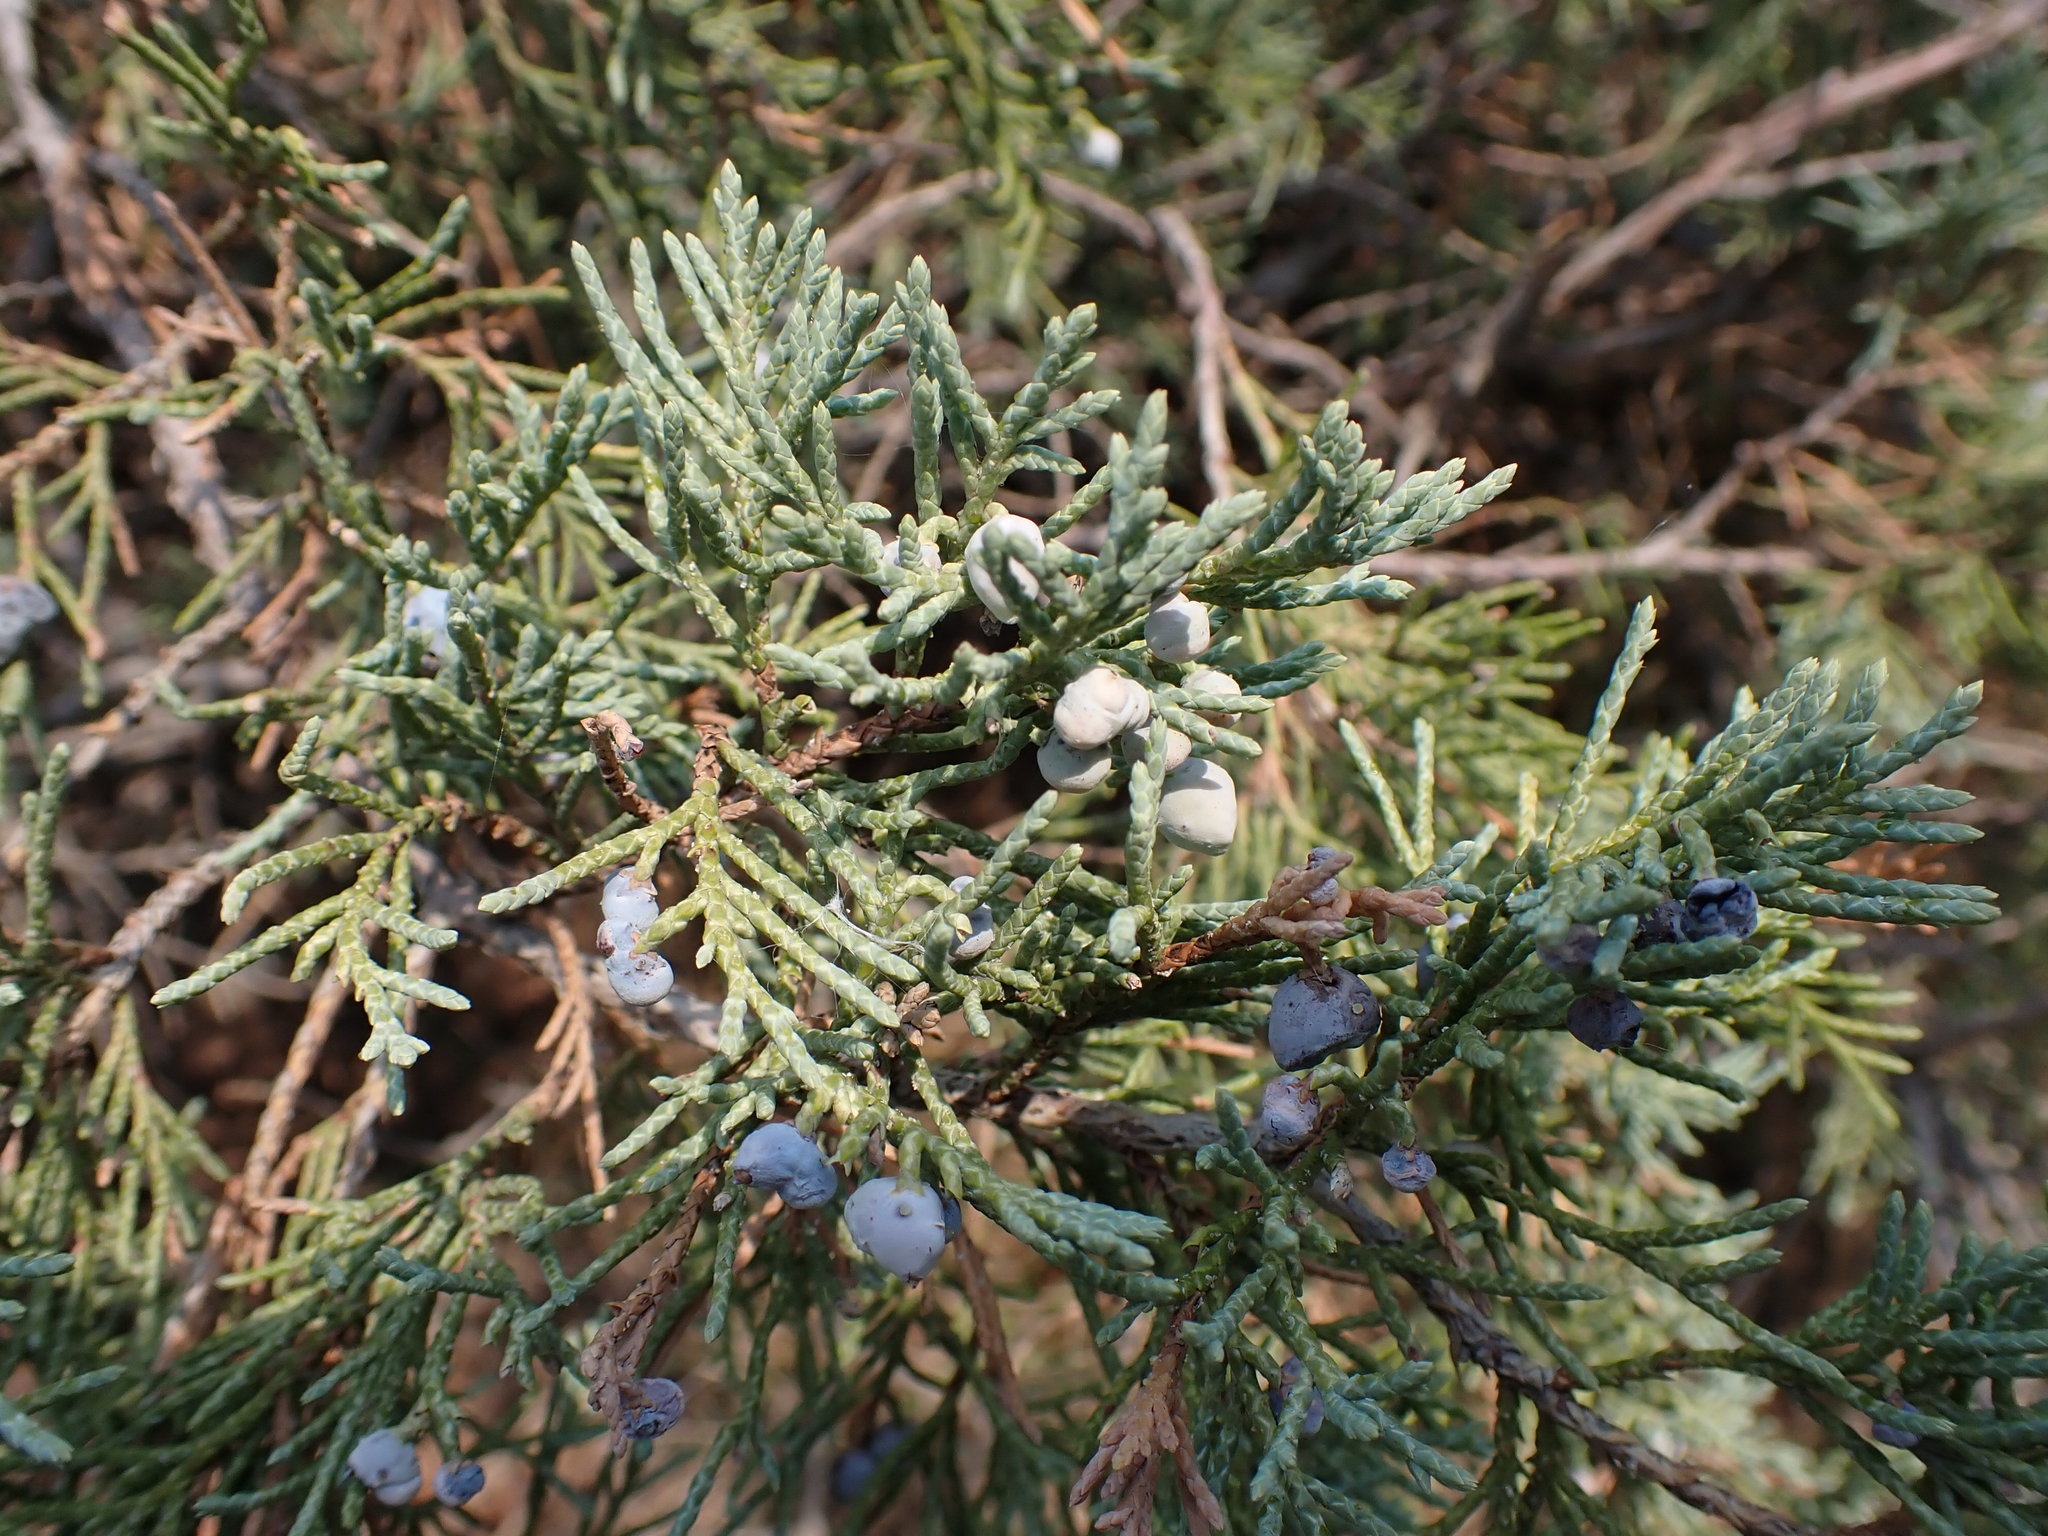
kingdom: Plantae
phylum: Tracheophyta
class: Pinopsida
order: Pinales
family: Cupressaceae
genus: Juniperus
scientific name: Juniperus scopulorum
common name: Rocky mountain juniper
